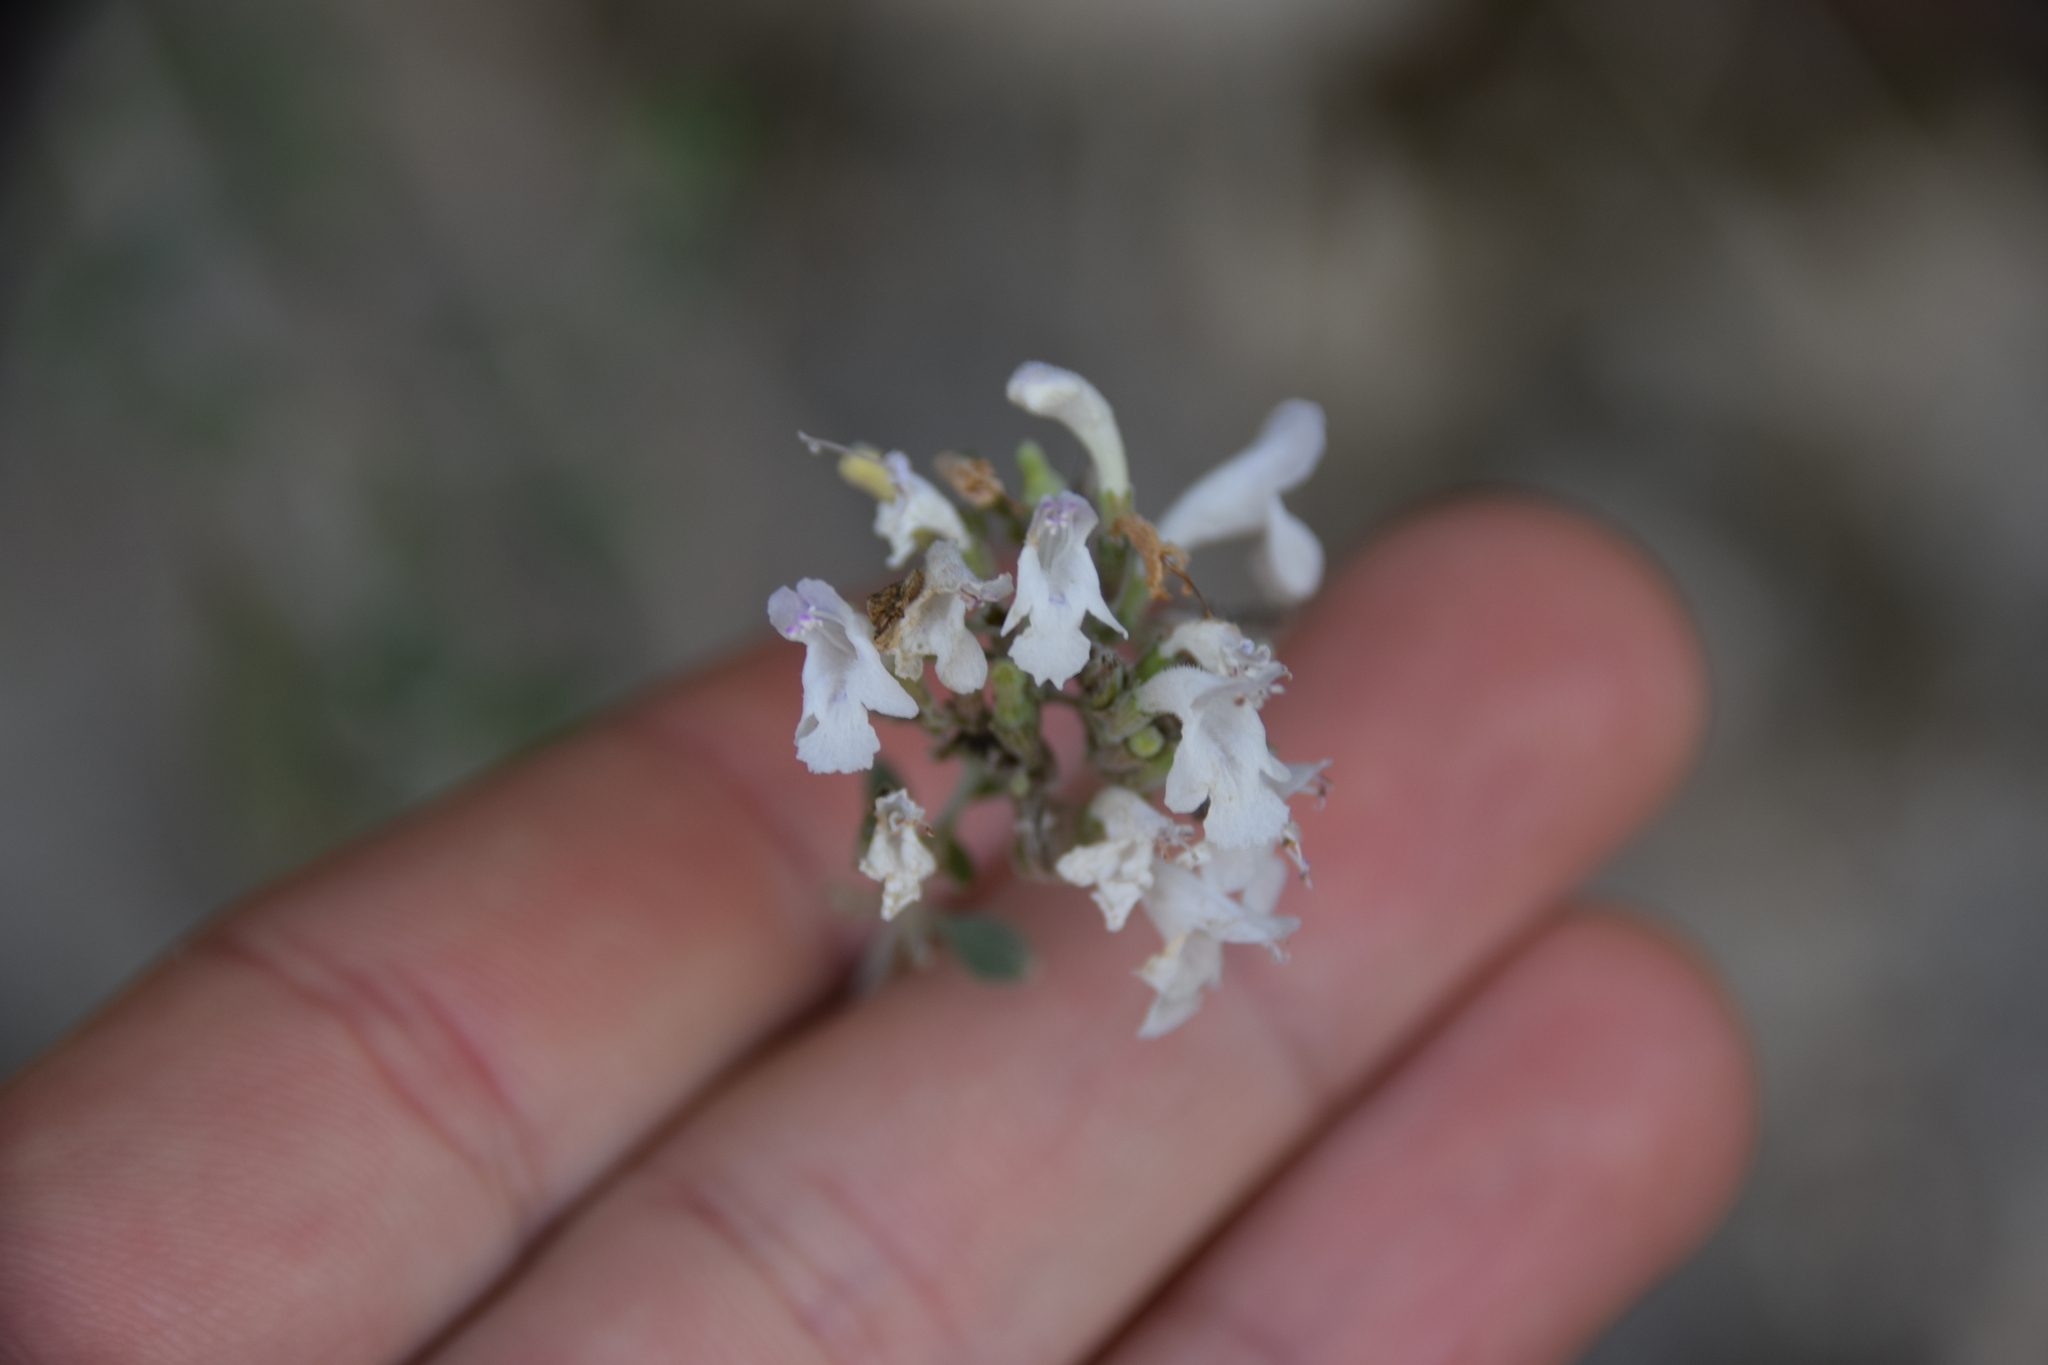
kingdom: Plantae
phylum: Tracheophyta
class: Magnoliopsida
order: Lamiales
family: Lamiaceae
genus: Clinopodium
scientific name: Clinopodium serpyllifolium
